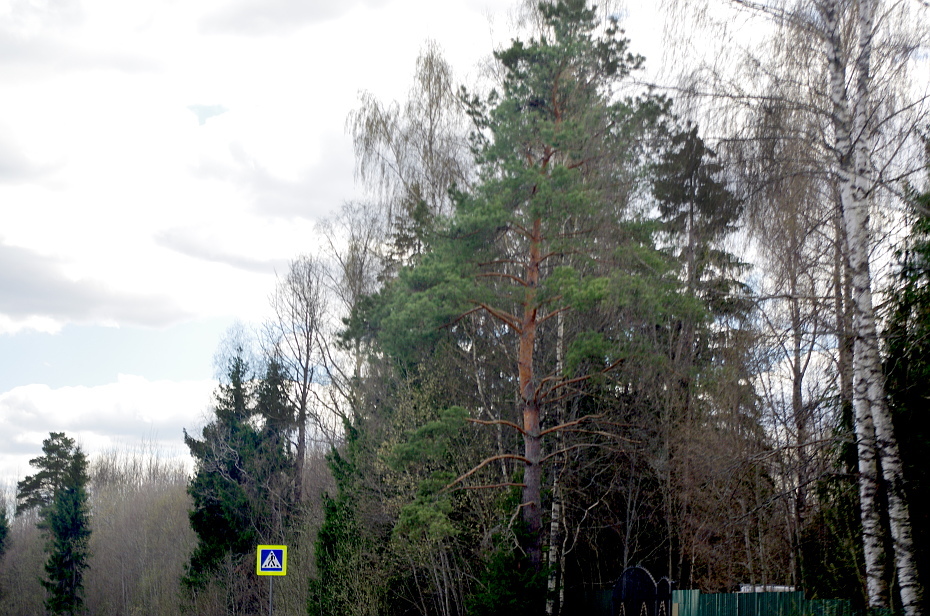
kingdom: Plantae
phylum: Tracheophyta
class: Pinopsida
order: Pinales
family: Pinaceae
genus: Pinus
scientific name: Pinus sylvestris
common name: Scots pine
